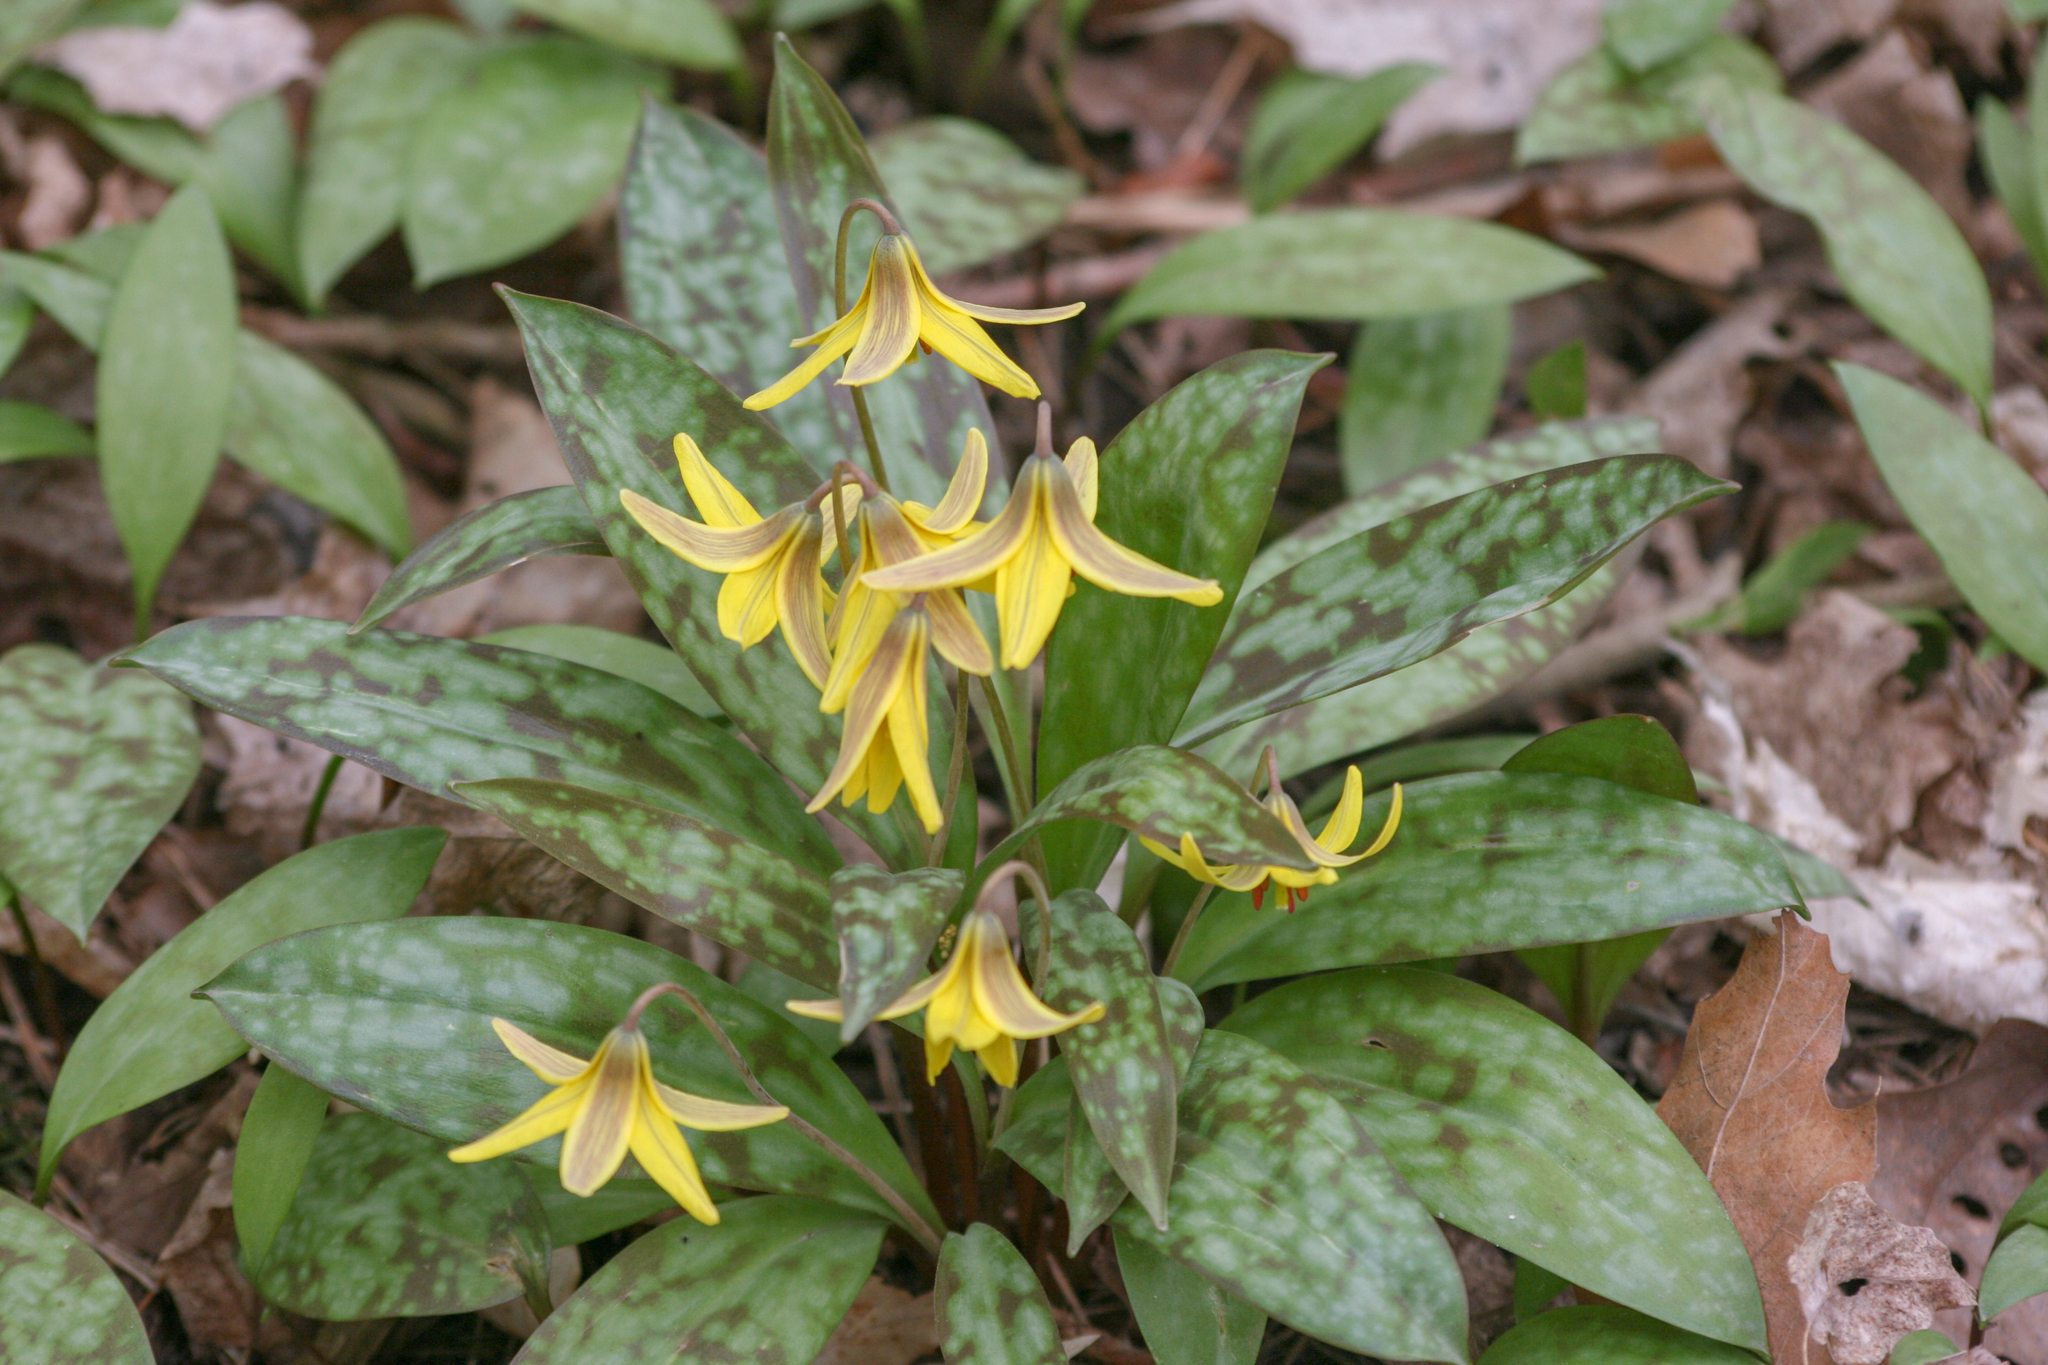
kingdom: Plantae
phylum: Tracheophyta
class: Liliopsida
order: Liliales
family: Liliaceae
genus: Erythronium
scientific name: Erythronium americanum
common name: Yellow adder's-tongue
